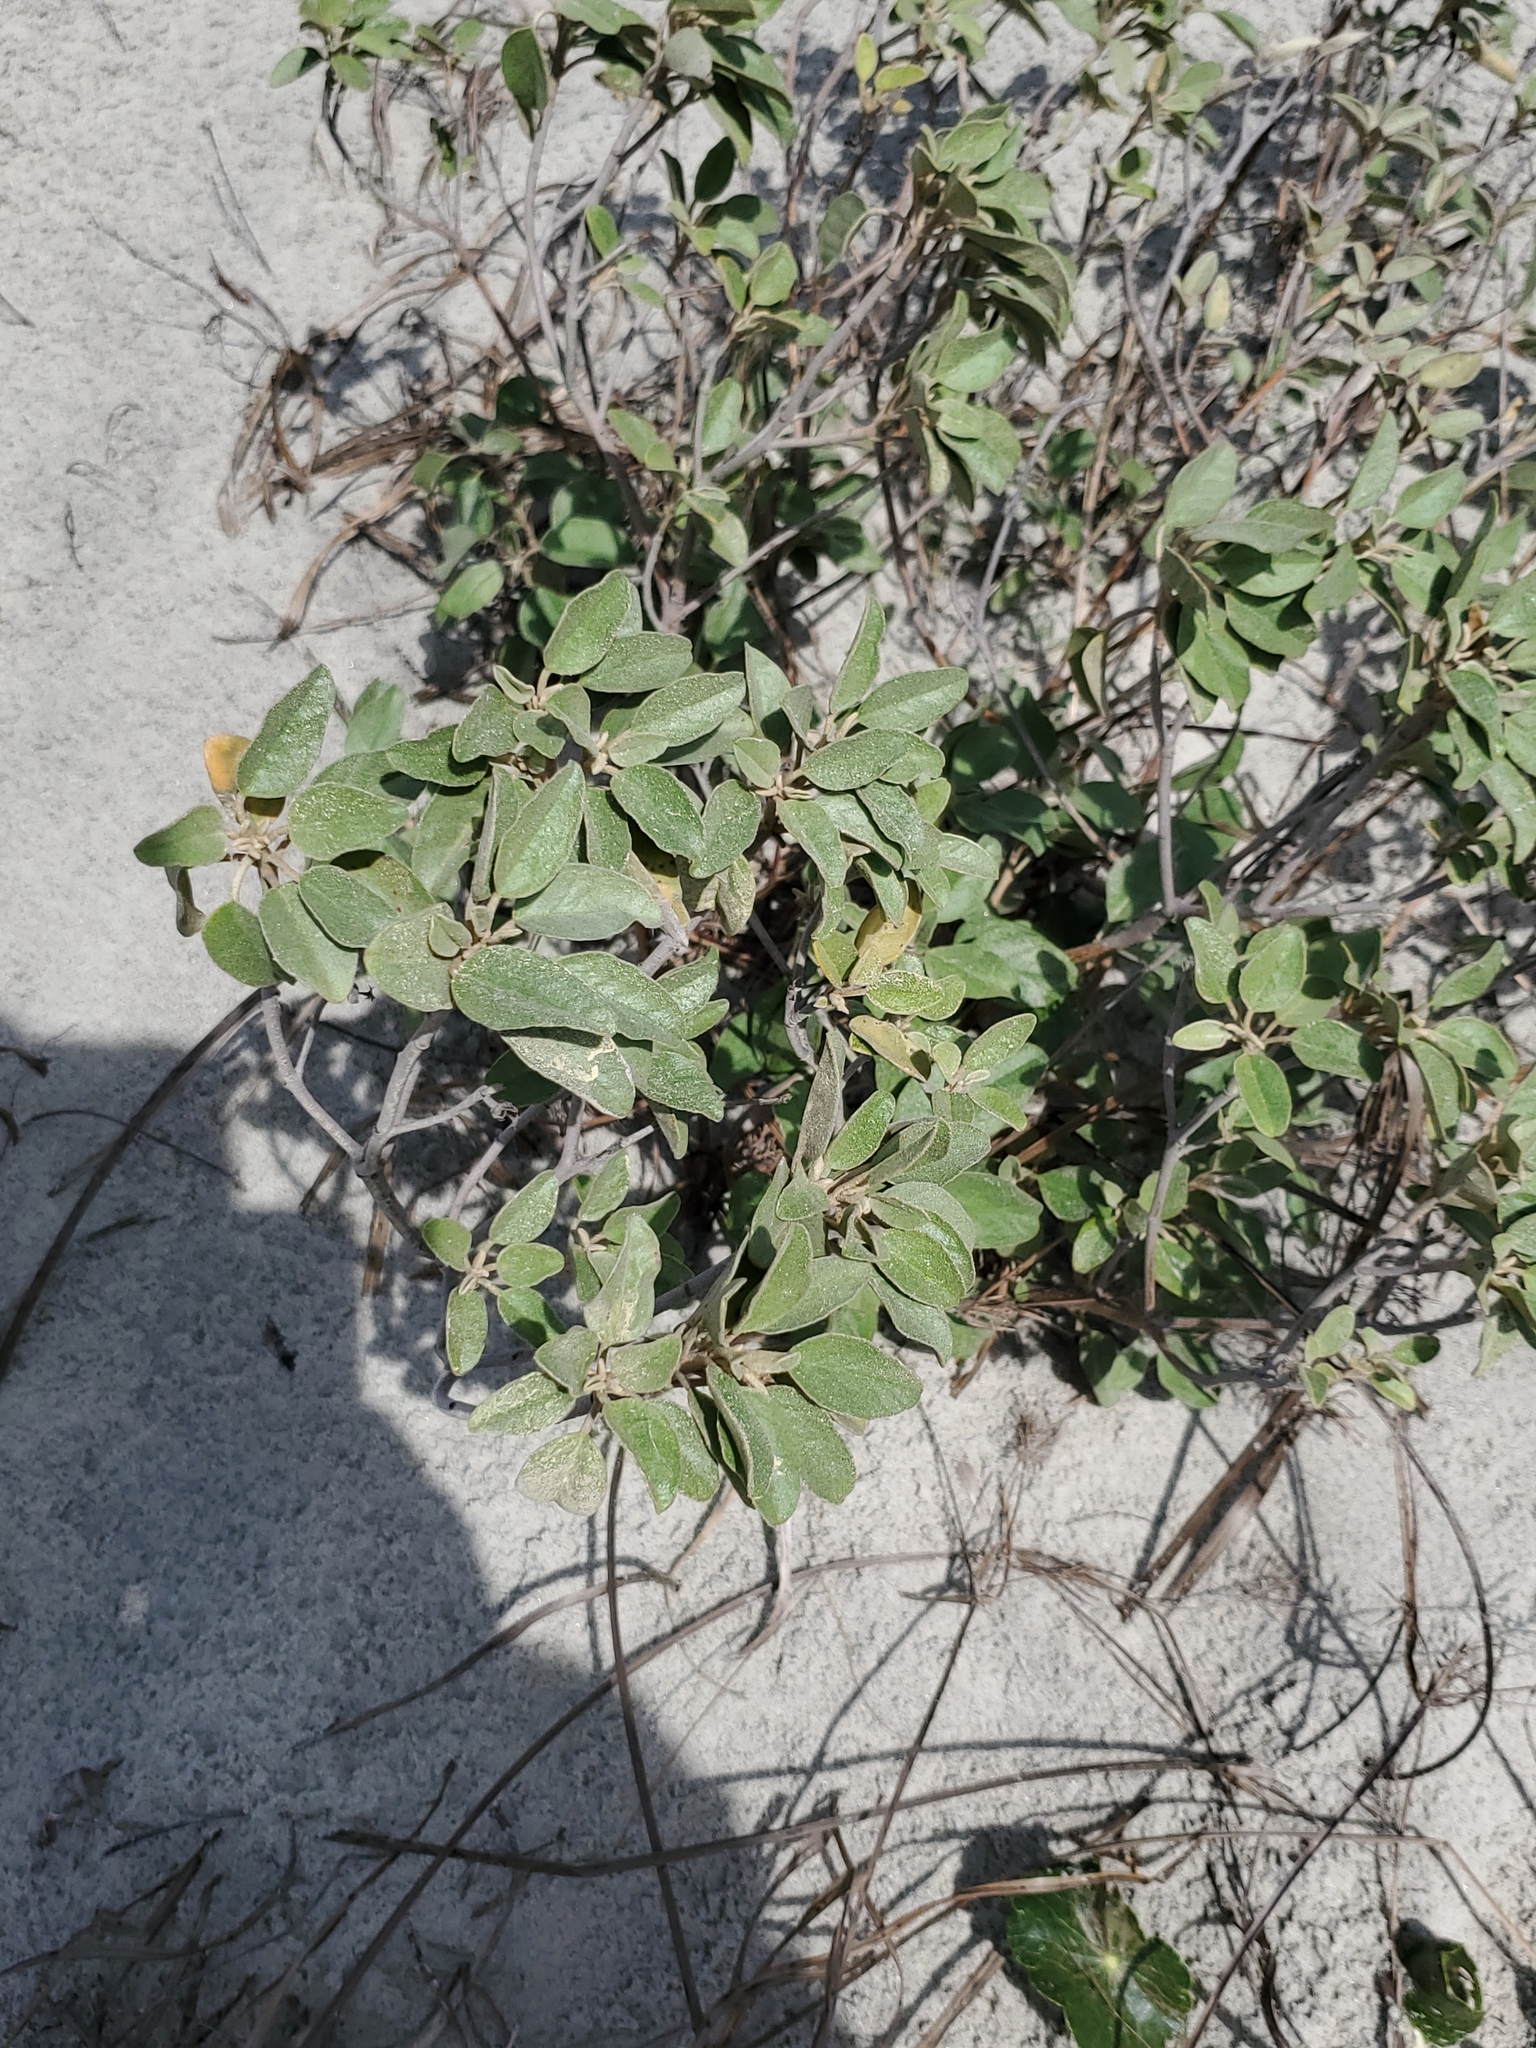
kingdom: Plantae
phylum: Tracheophyta
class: Magnoliopsida
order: Malpighiales
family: Euphorbiaceae
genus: Croton
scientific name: Croton punctatus
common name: Beach-tea
